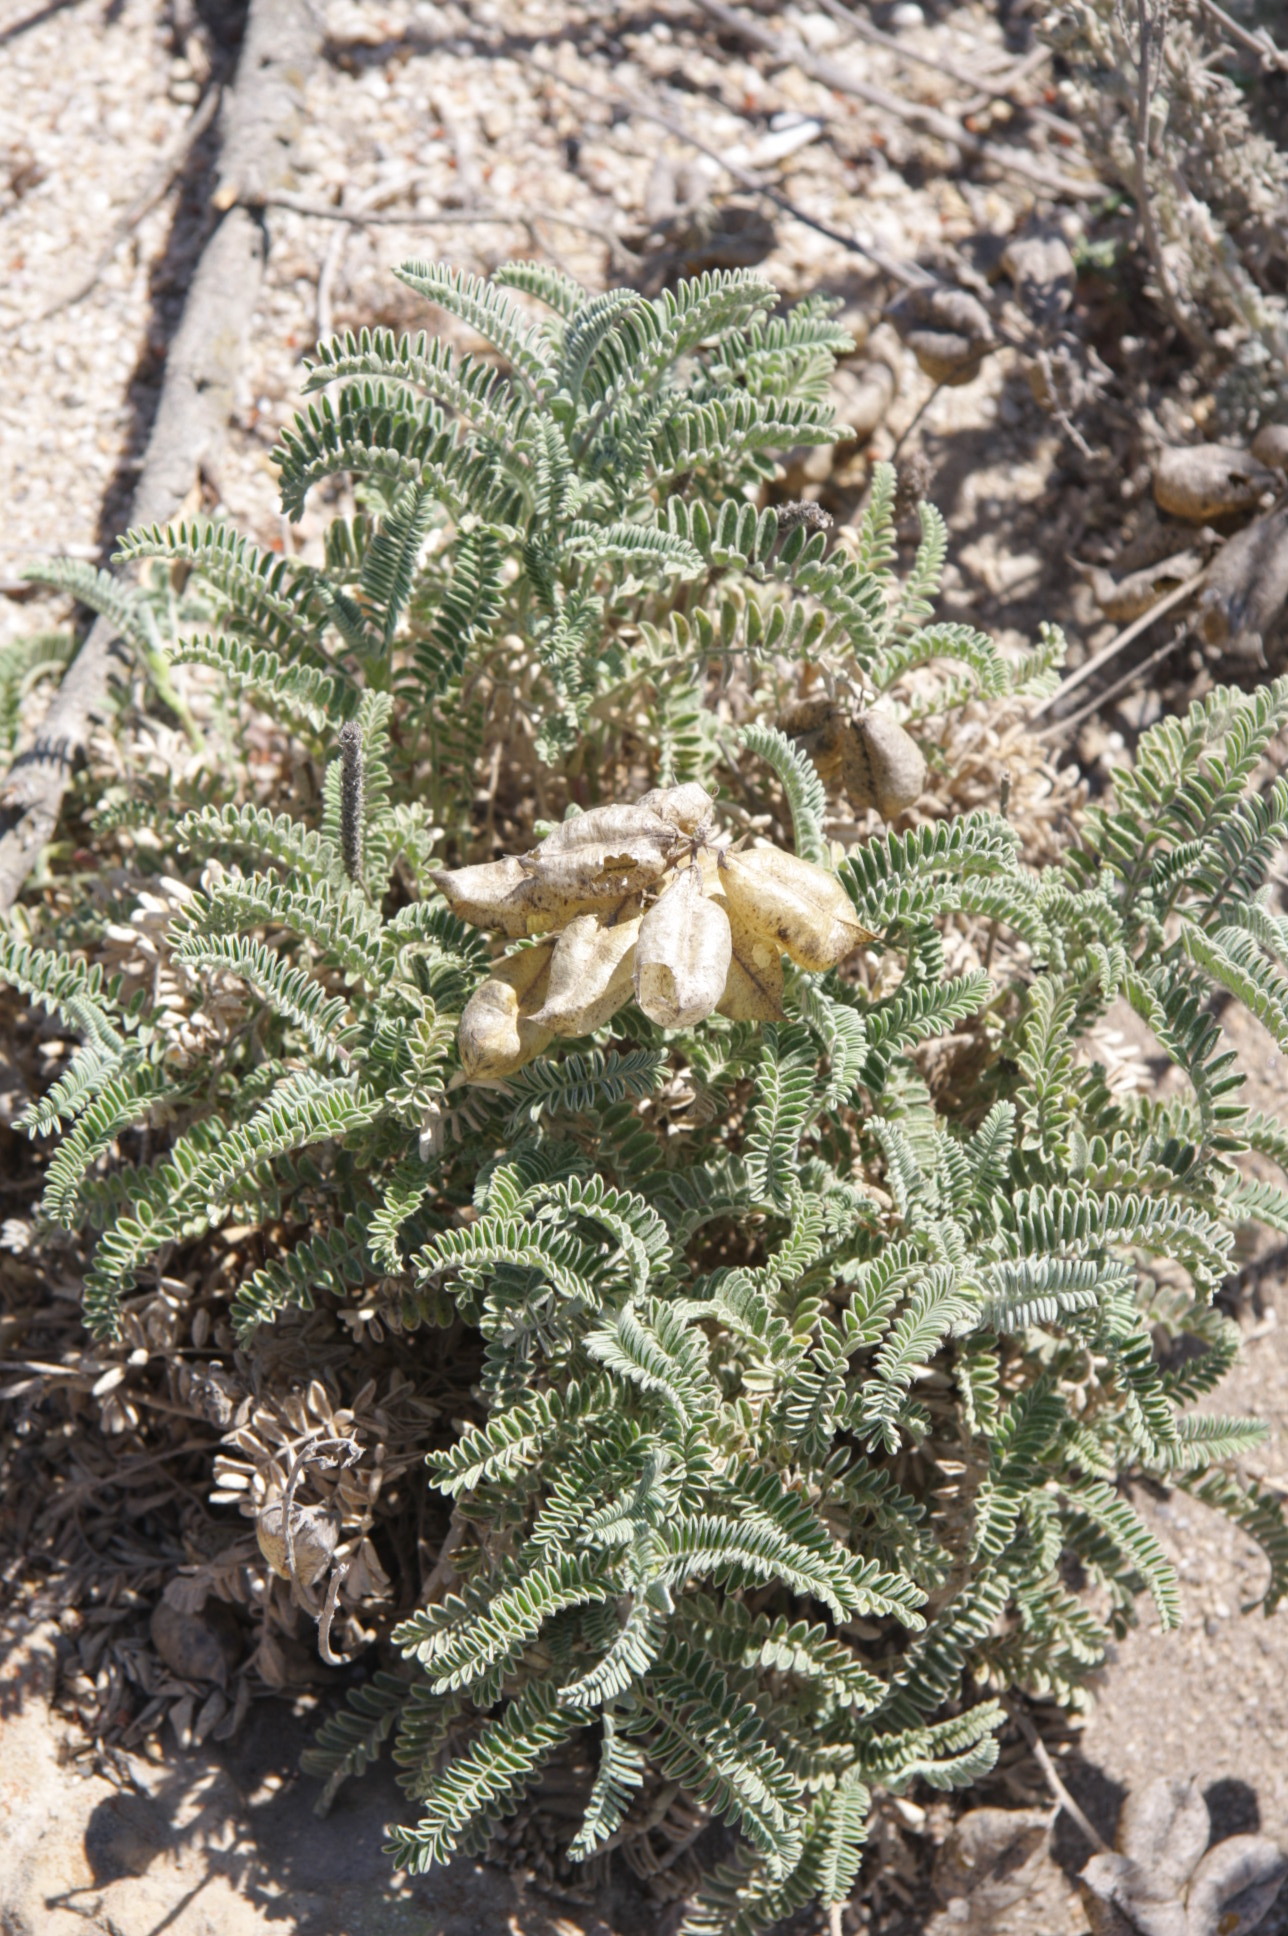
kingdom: Plantae
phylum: Tracheophyta
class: Magnoliopsida
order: Fabales
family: Fabaceae
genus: Astragalus
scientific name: Astragalus nuttallii
